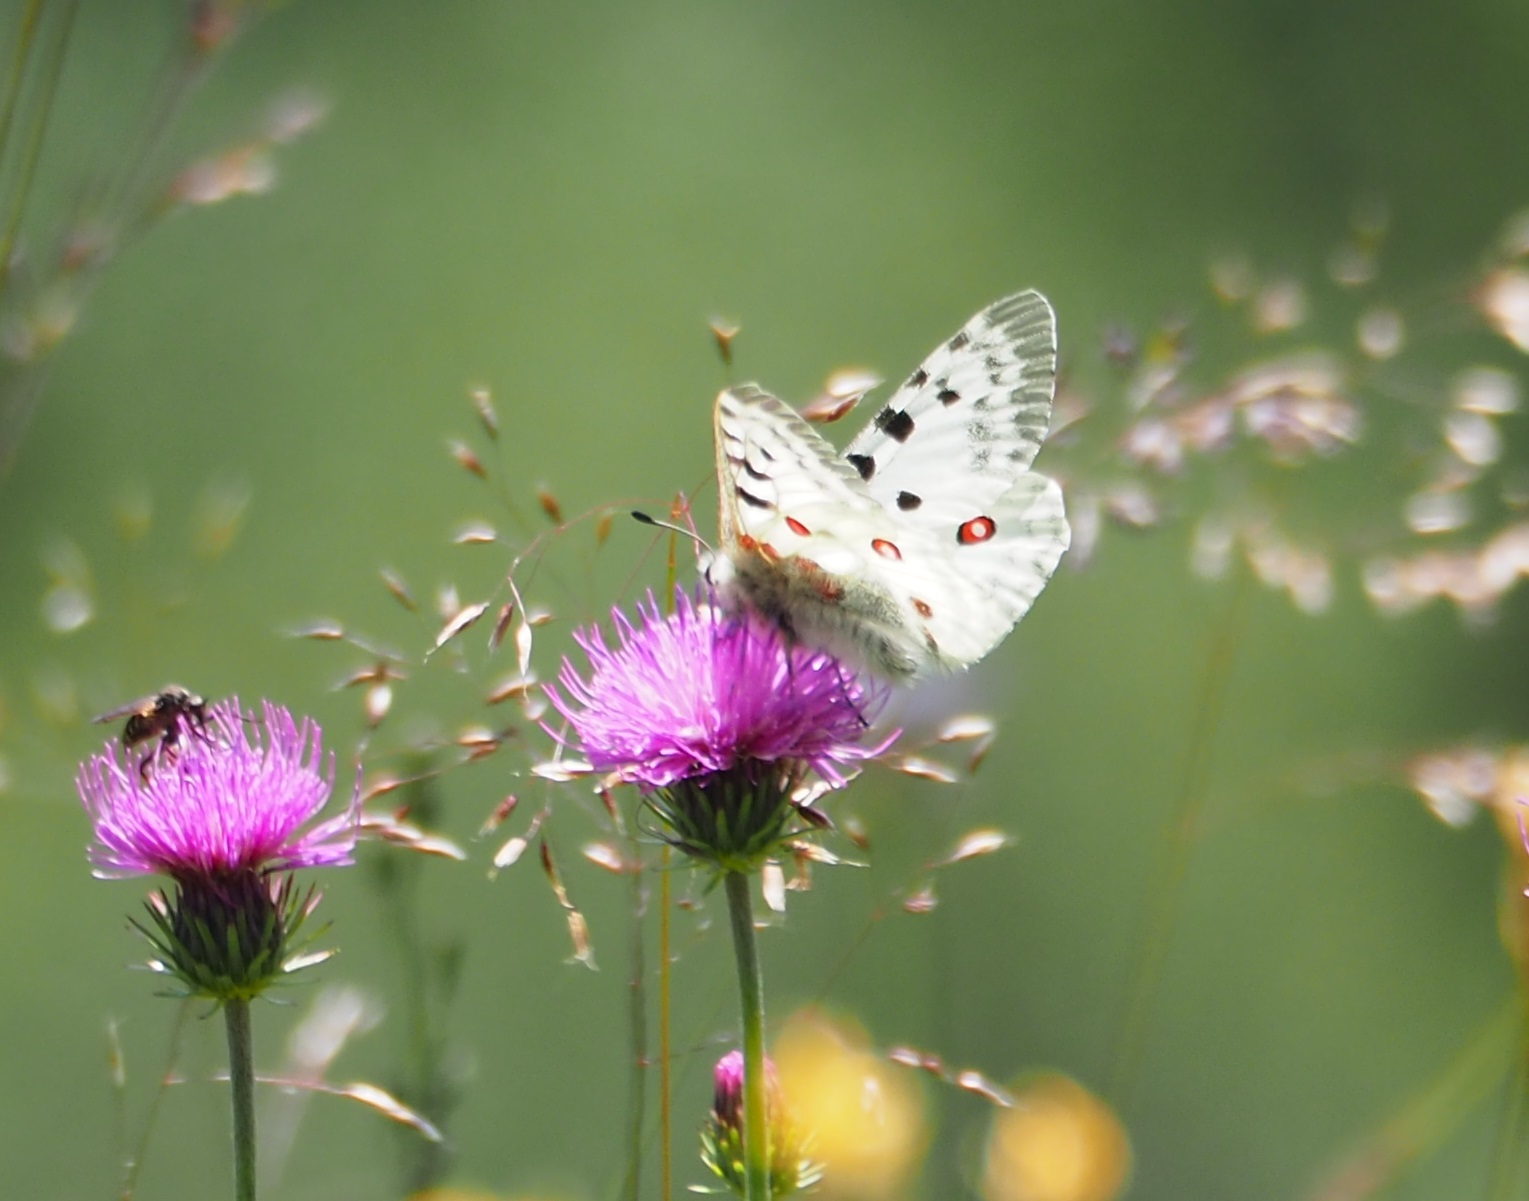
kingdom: Animalia
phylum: Arthropoda
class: Insecta
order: Lepidoptera
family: Papilionidae
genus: Parnassius
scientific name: Parnassius apollo
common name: Apollo
